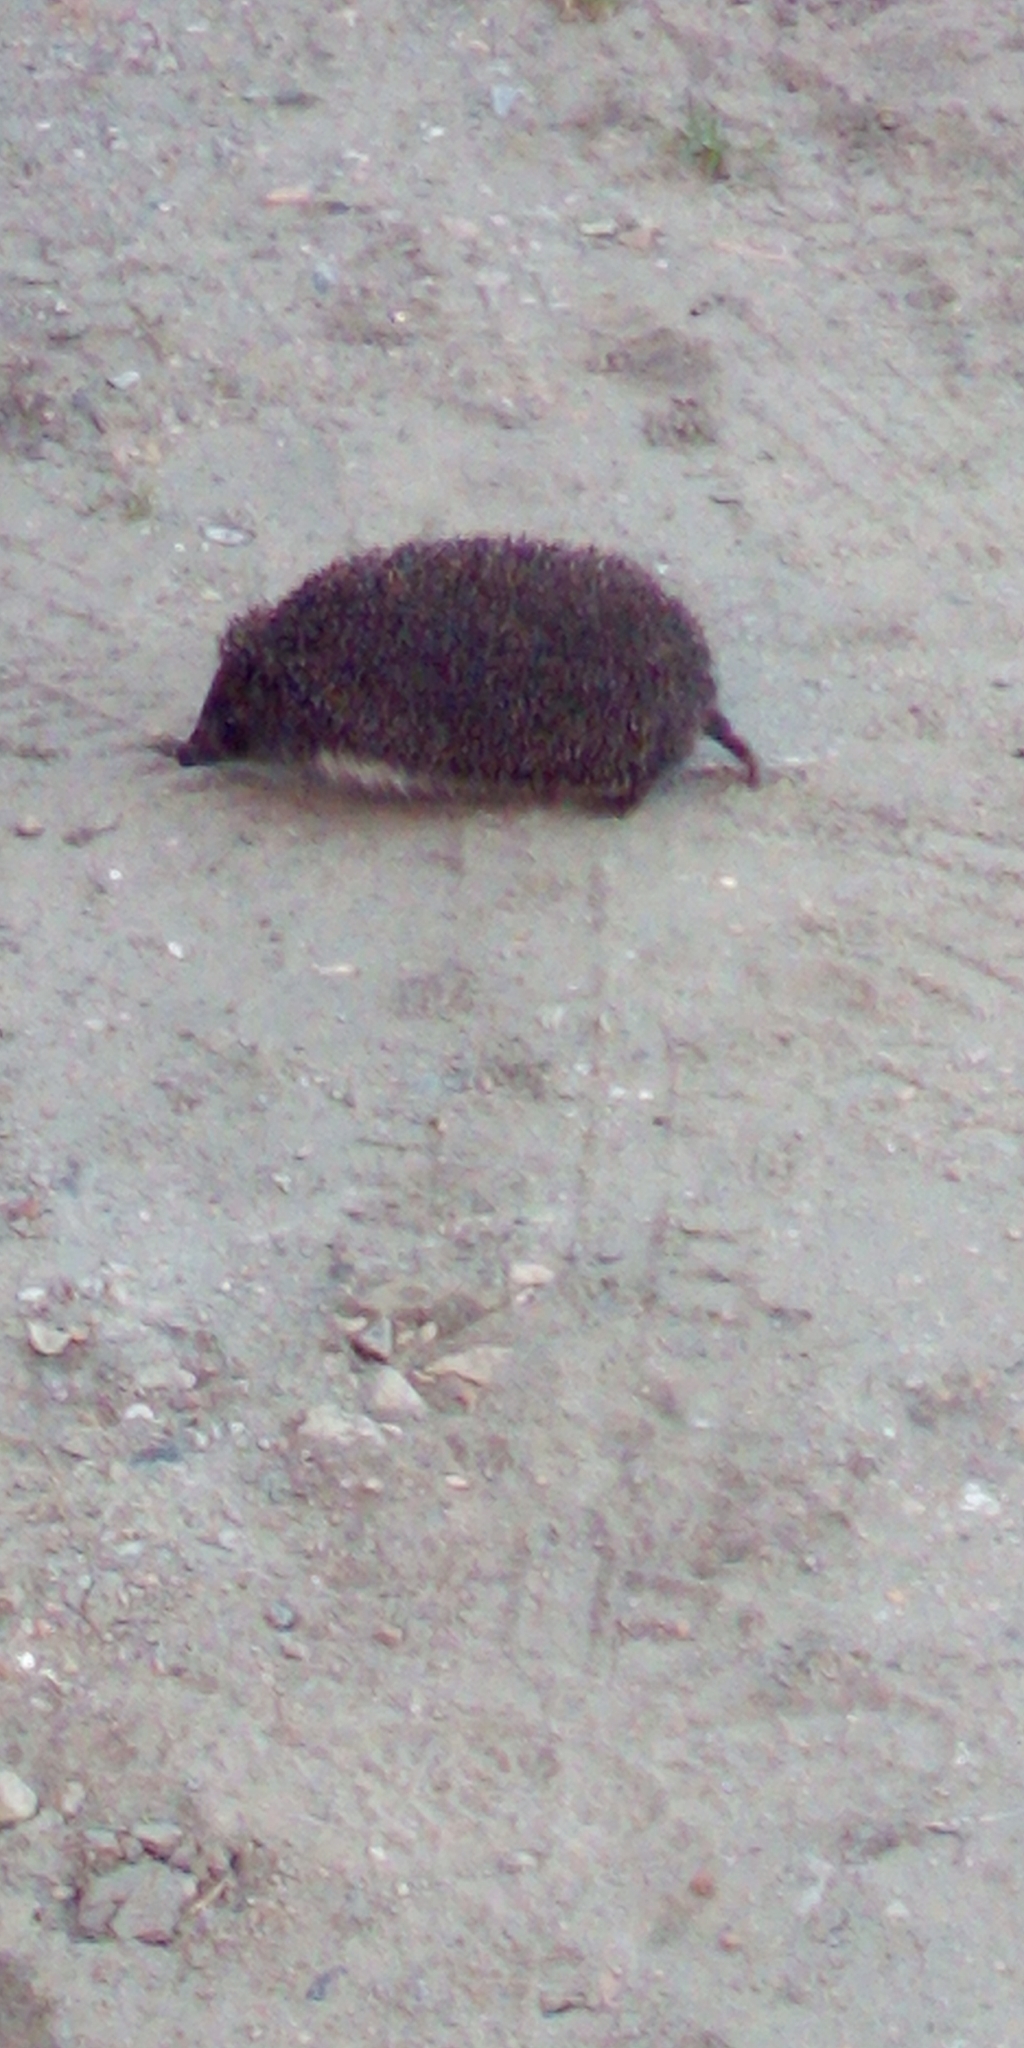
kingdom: Animalia
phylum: Chordata
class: Mammalia
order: Erinaceomorpha
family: Erinaceidae
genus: Erinaceus
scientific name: Erinaceus roumanicus
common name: Northern white-breasted hedgehog
